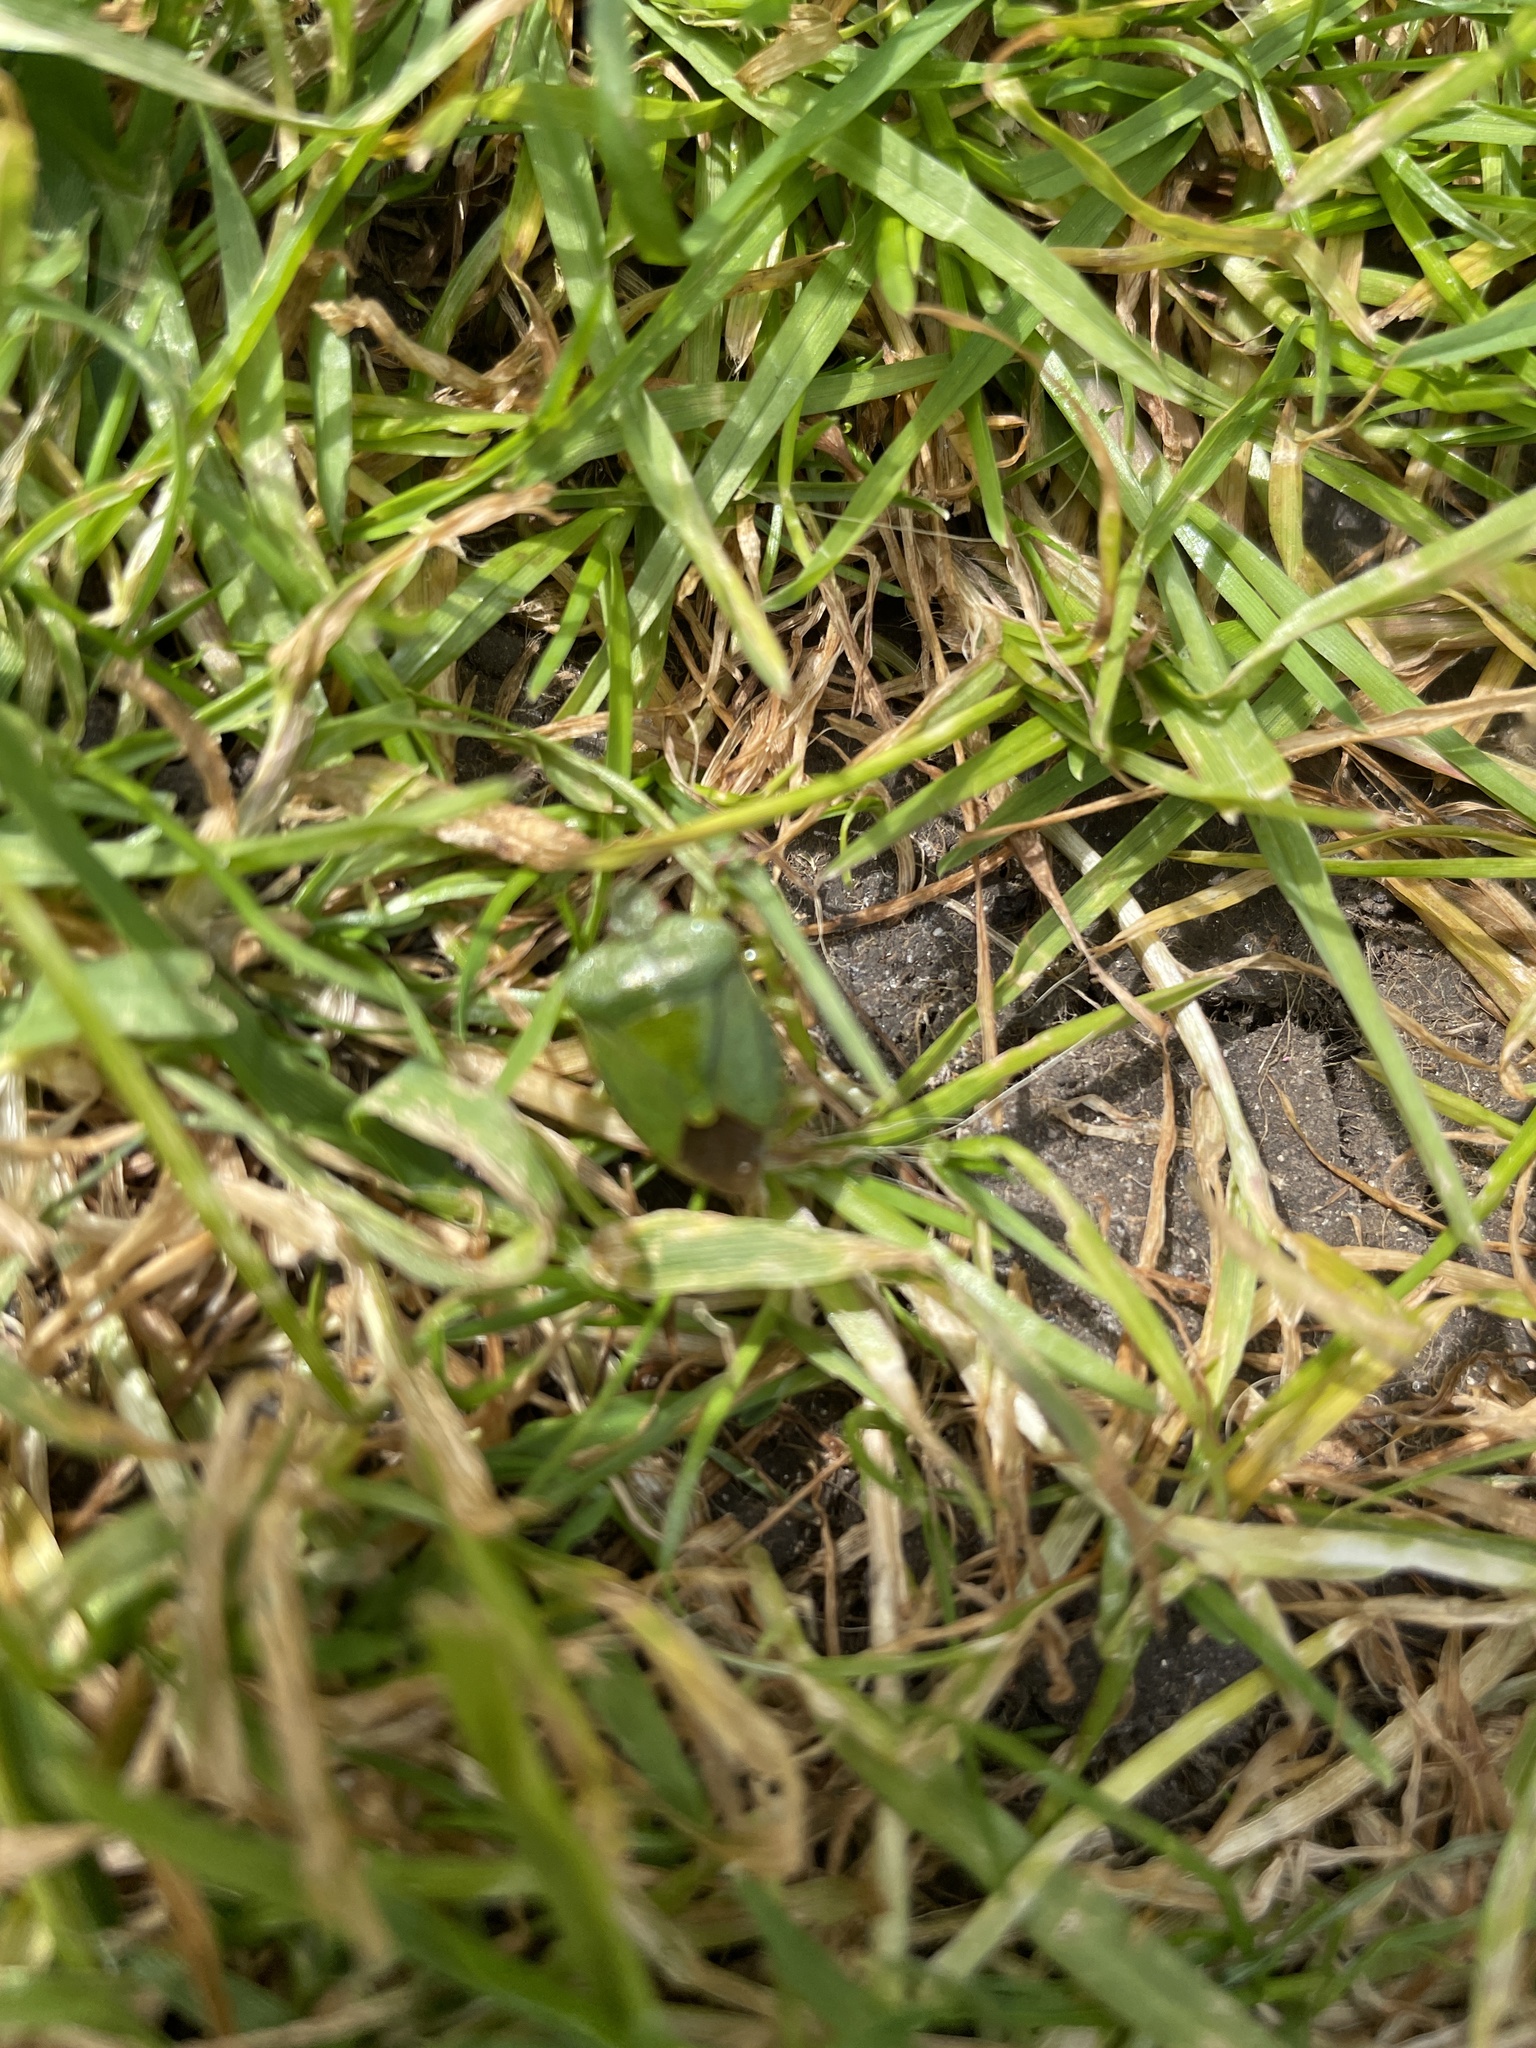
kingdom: Animalia
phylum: Arthropoda
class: Insecta
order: Hemiptera
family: Pentatomidae
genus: Palomena
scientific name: Palomena prasina
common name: Green shieldbug
